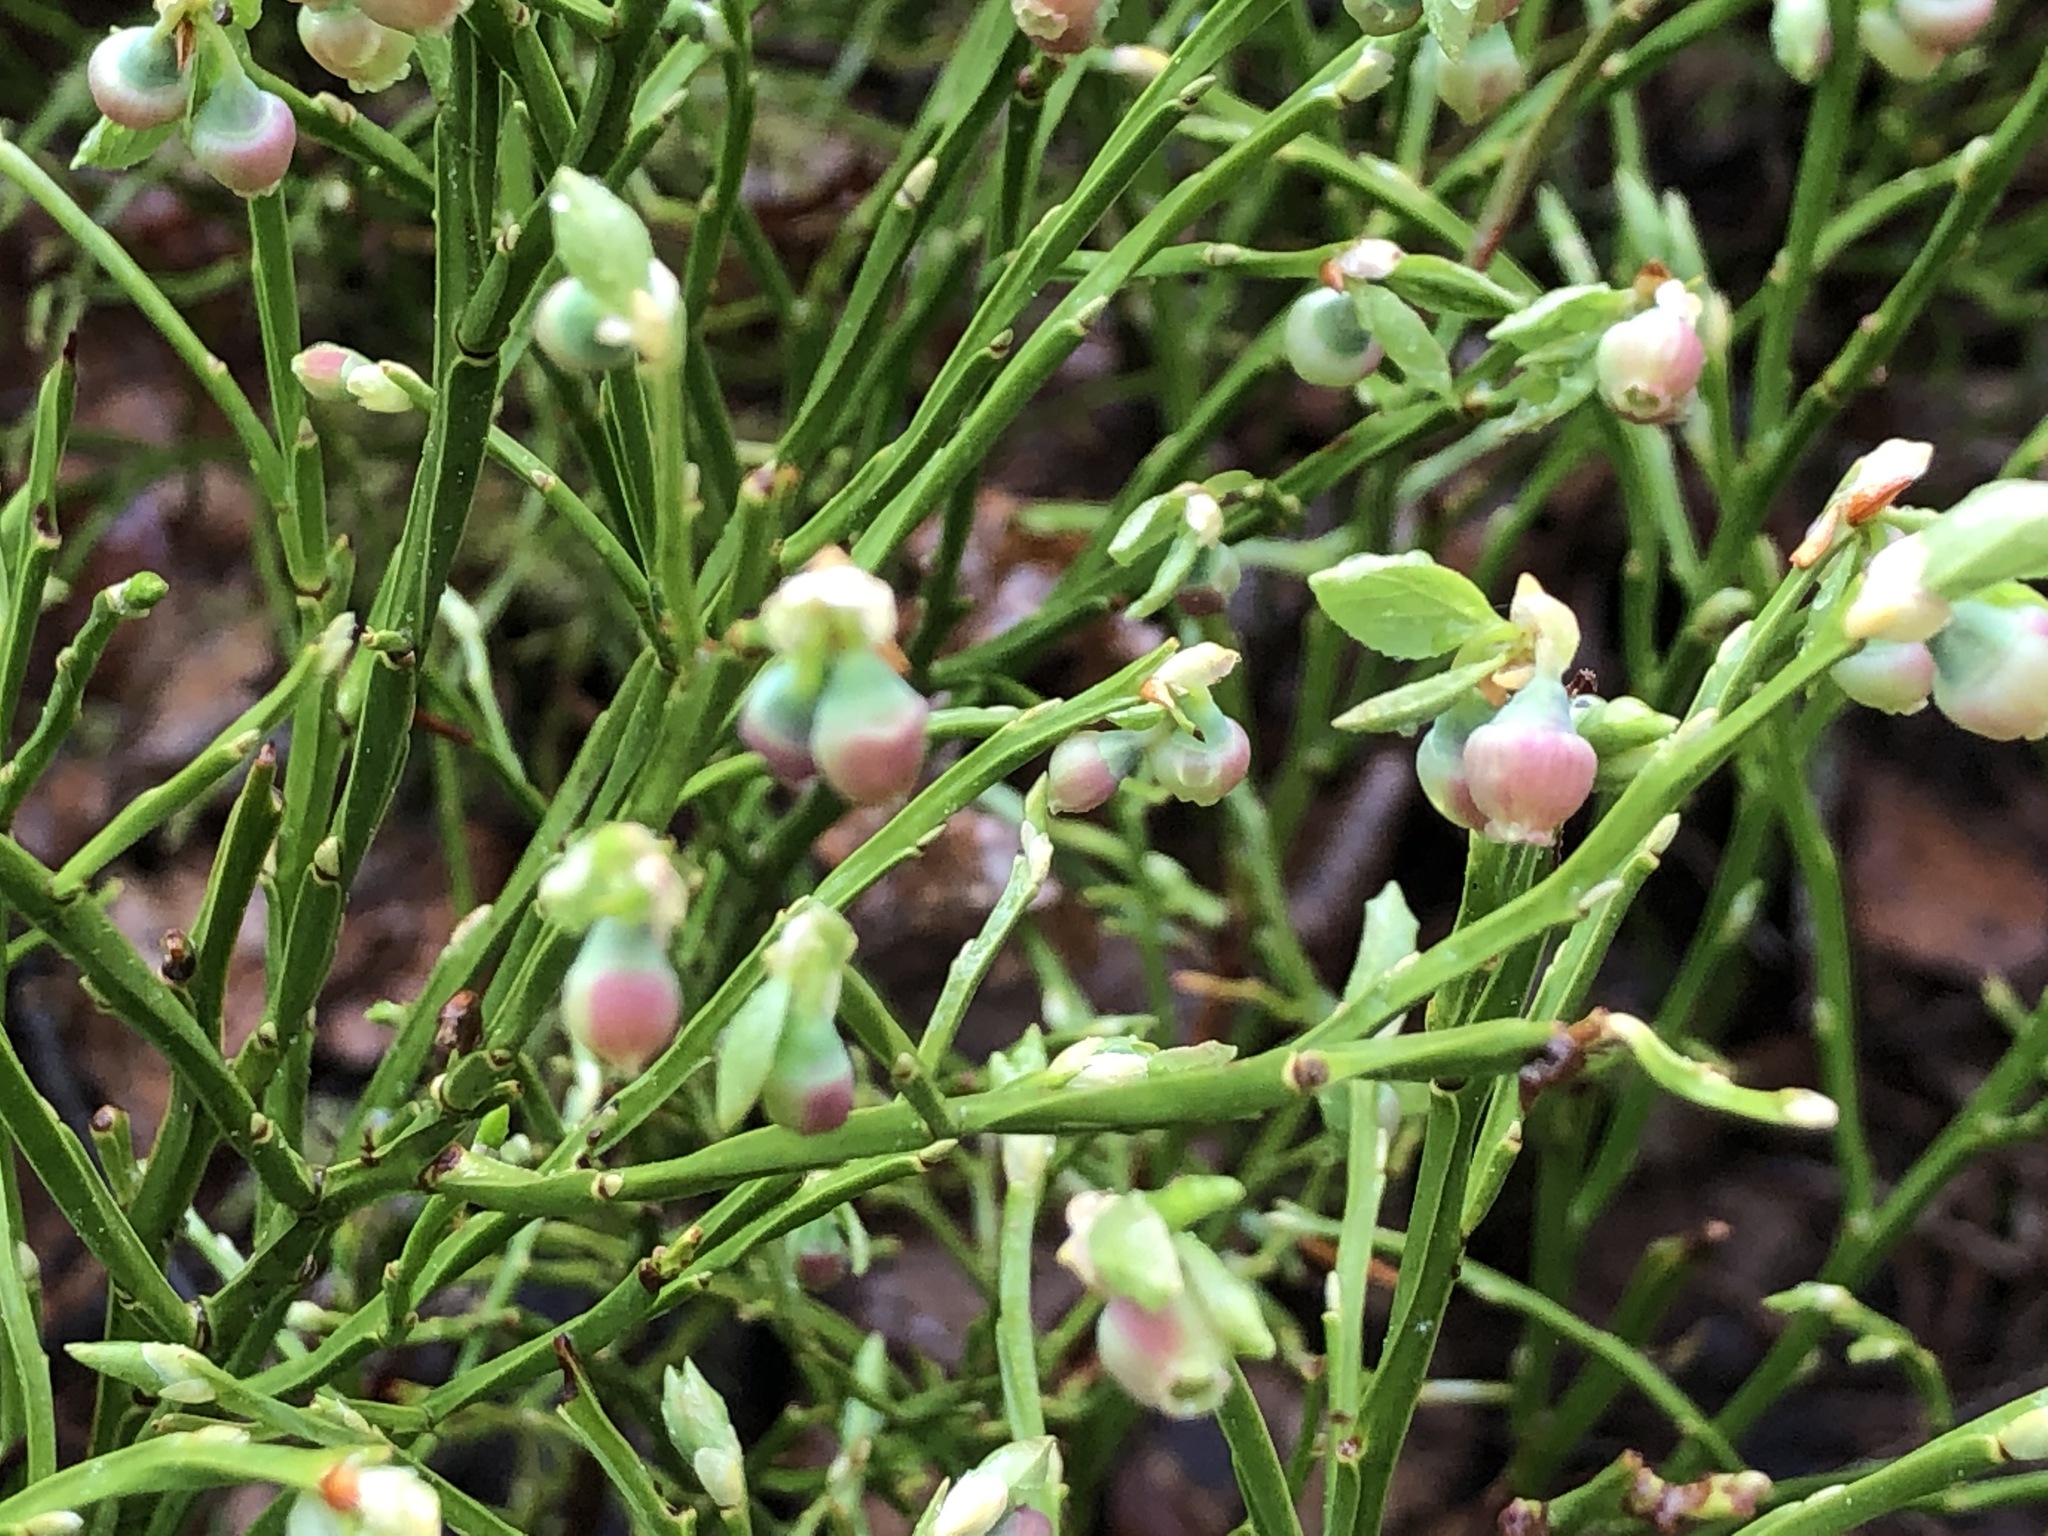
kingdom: Plantae
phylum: Tracheophyta
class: Magnoliopsida
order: Ericales
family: Ericaceae
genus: Vaccinium
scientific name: Vaccinium myrtillus
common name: Bilberry
